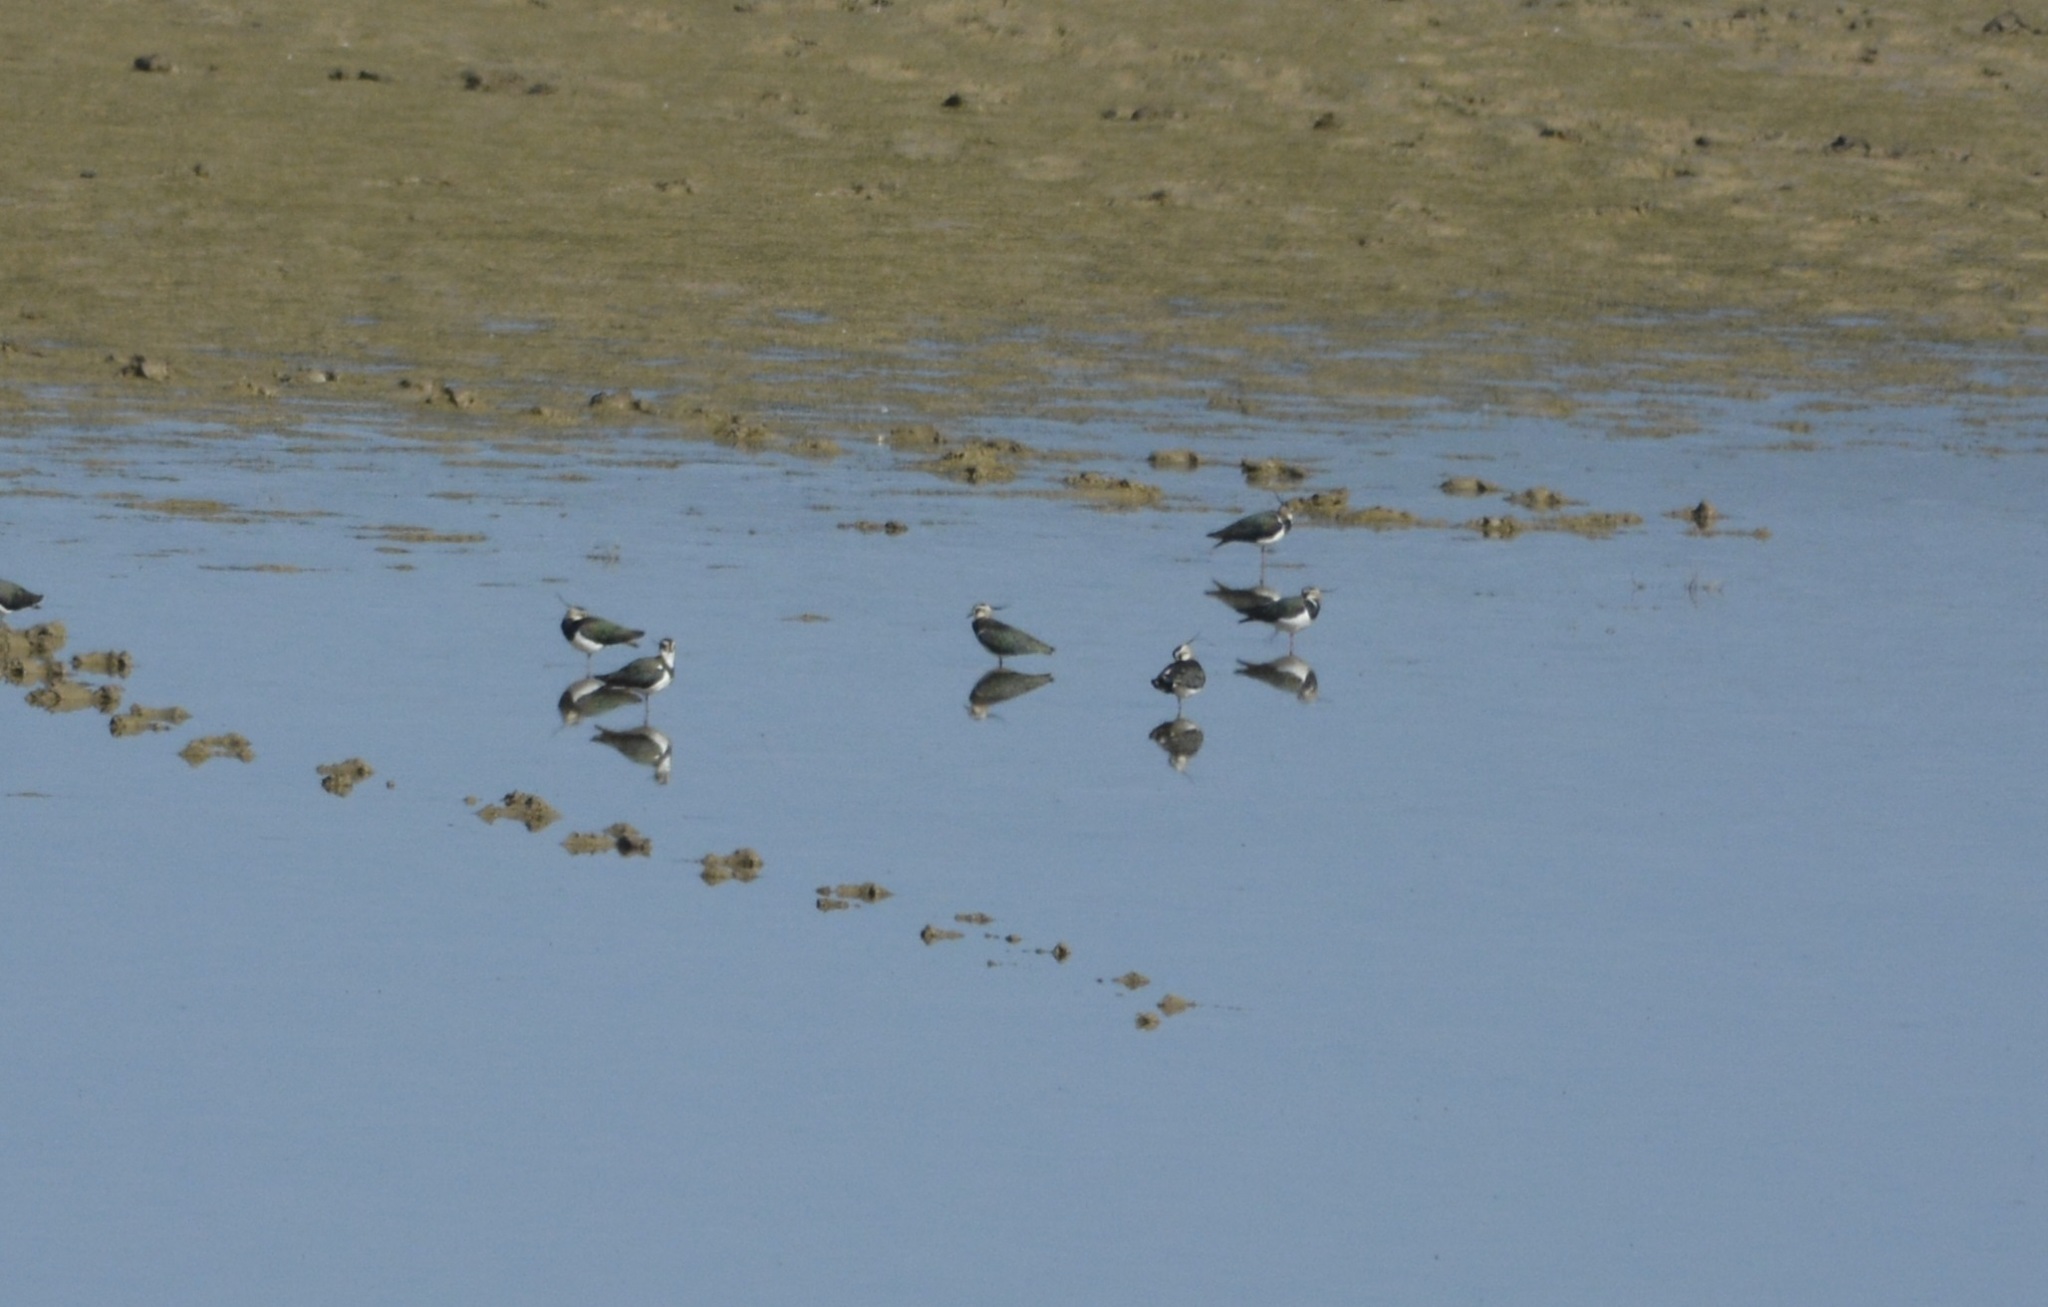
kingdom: Animalia
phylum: Chordata
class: Aves
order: Charadriiformes
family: Charadriidae
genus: Vanellus
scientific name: Vanellus vanellus
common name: Northern lapwing
